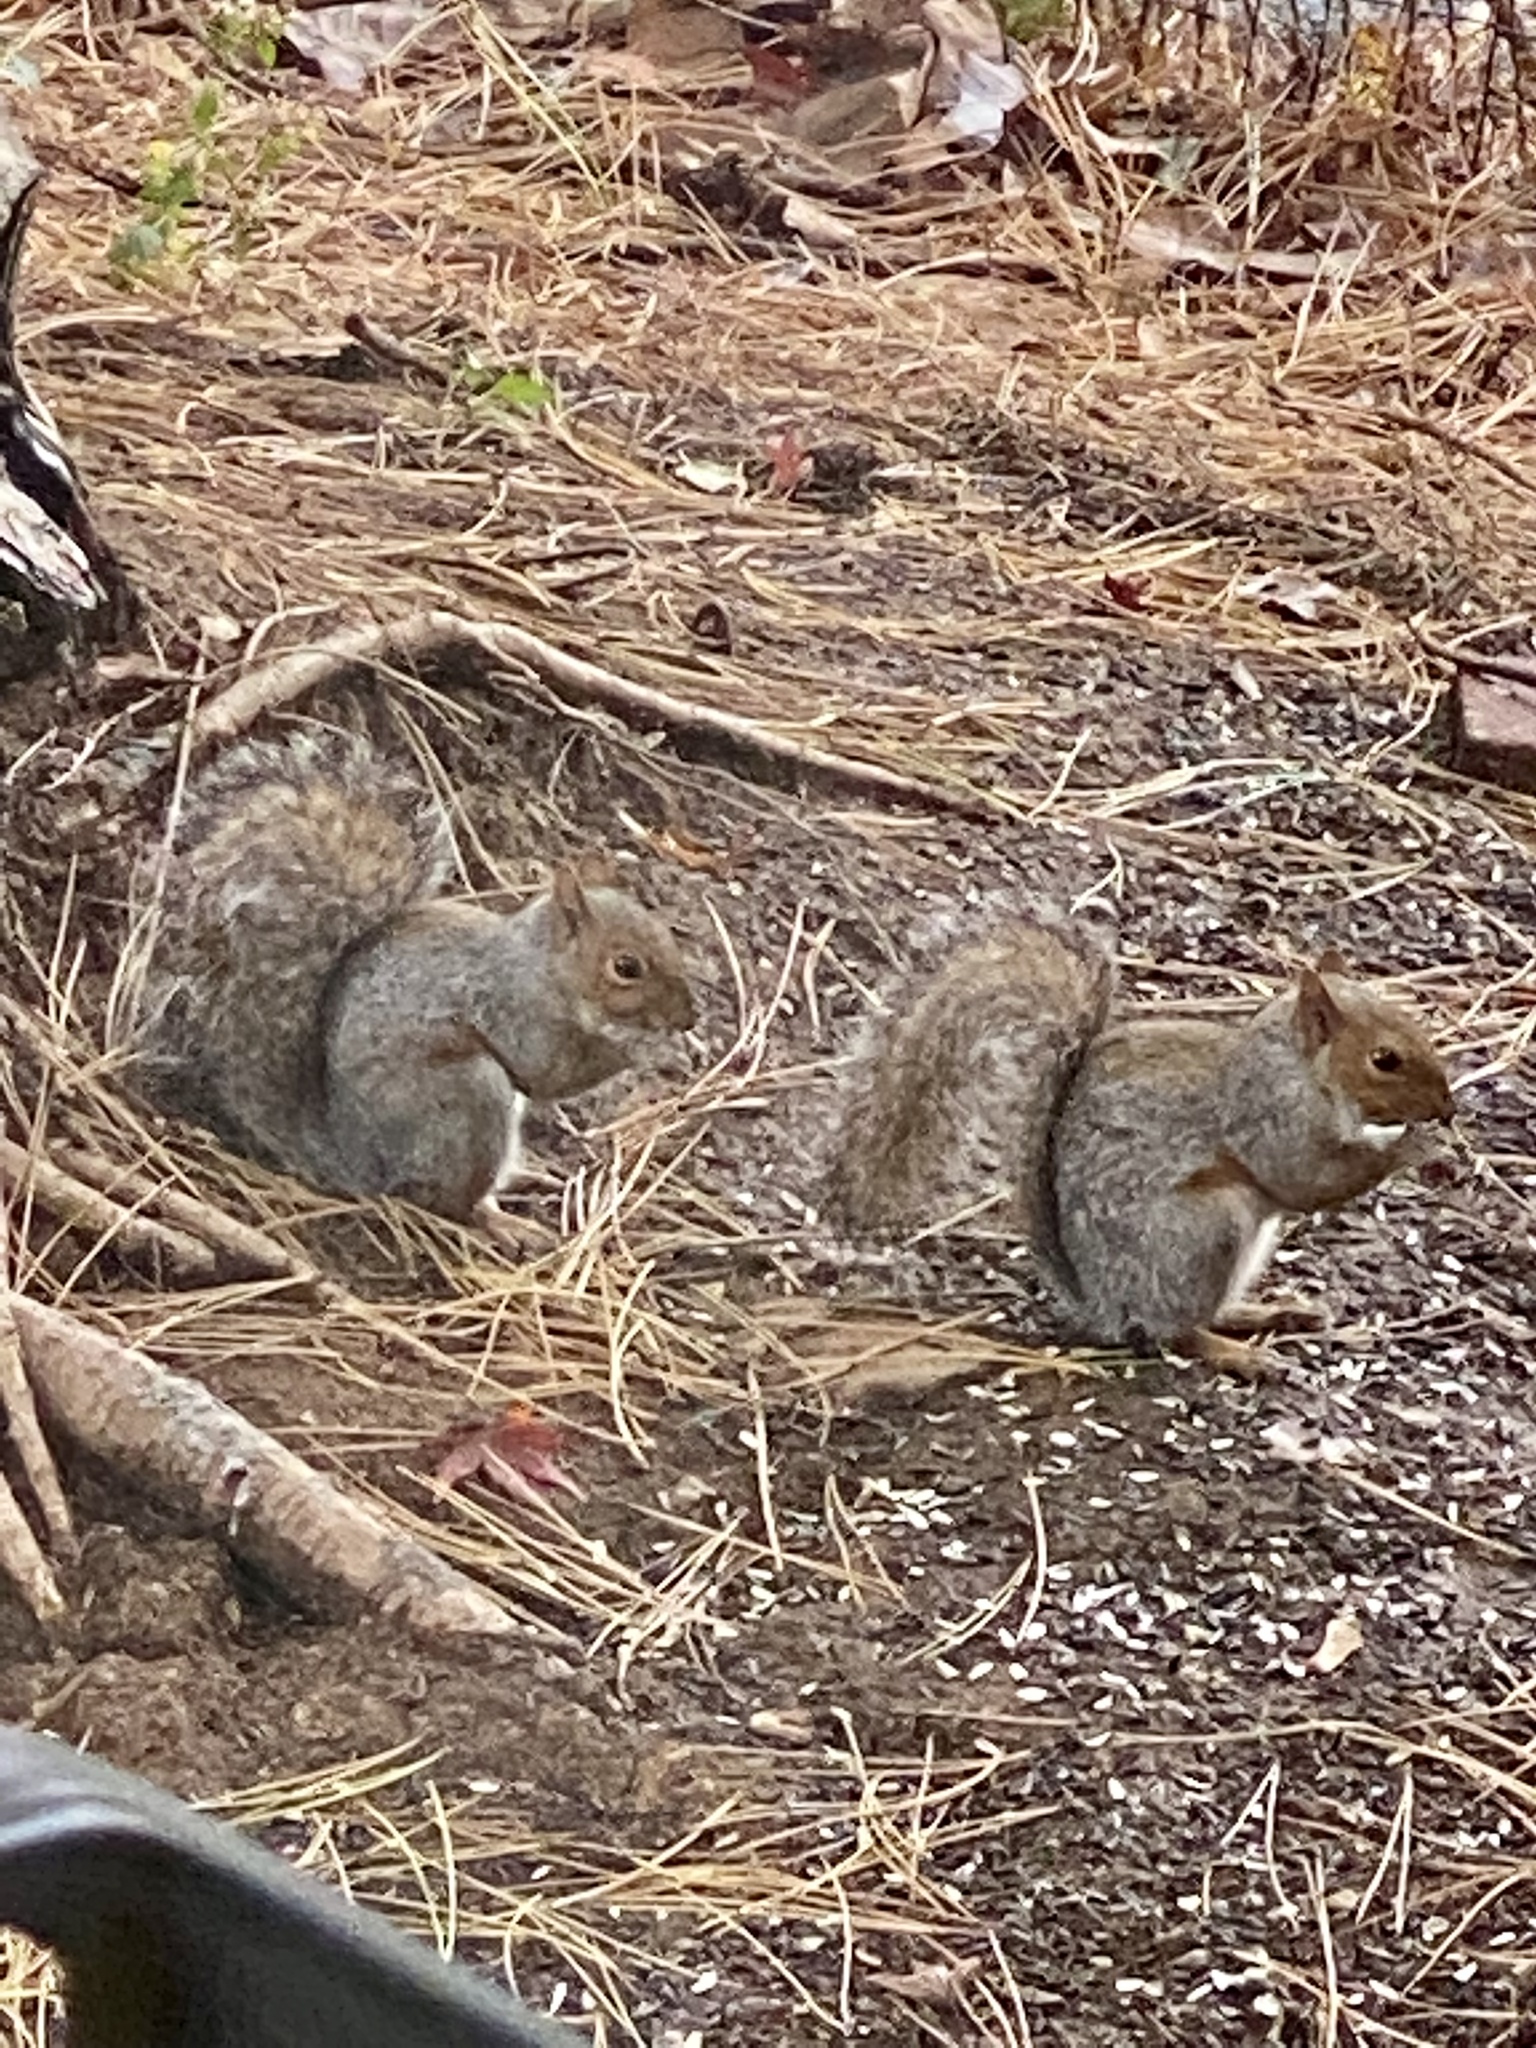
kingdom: Animalia
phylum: Chordata
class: Mammalia
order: Rodentia
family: Sciuridae
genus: Sciurus
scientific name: Sciurus carolinensis
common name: Eastern gray squirrel
